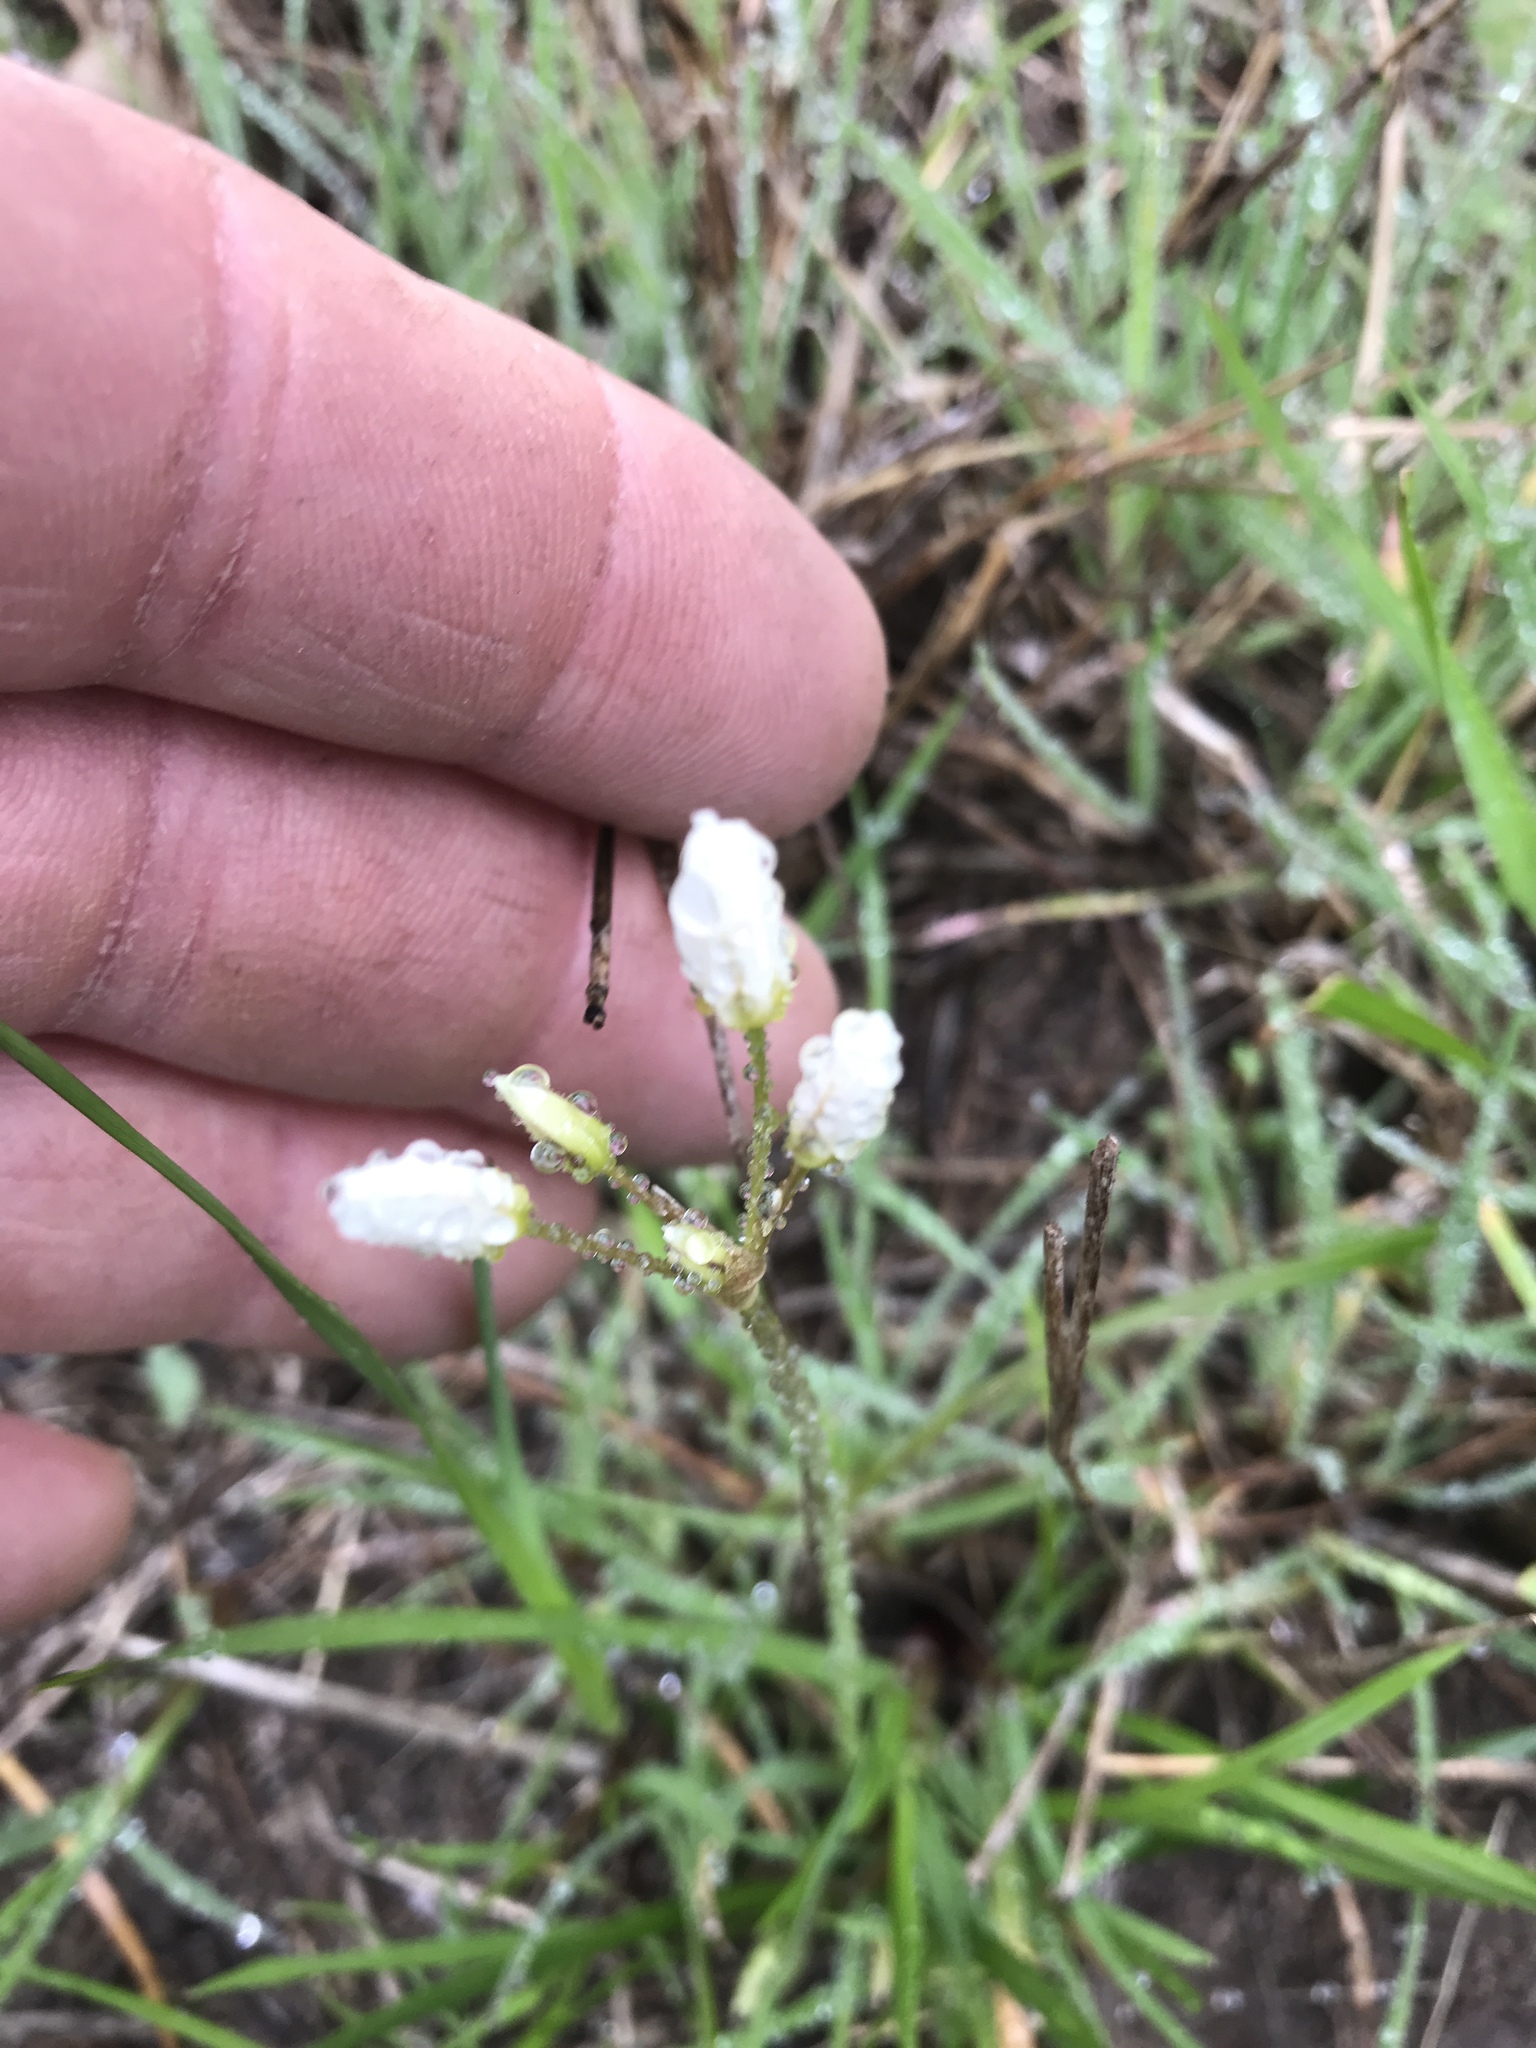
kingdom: Plantae
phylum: Tracheophyta
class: Liliopsida
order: Asparagales
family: Amaryllidaceae
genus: Nothoscordum
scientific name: Nothoscordum bivalve
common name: Crow-poison
